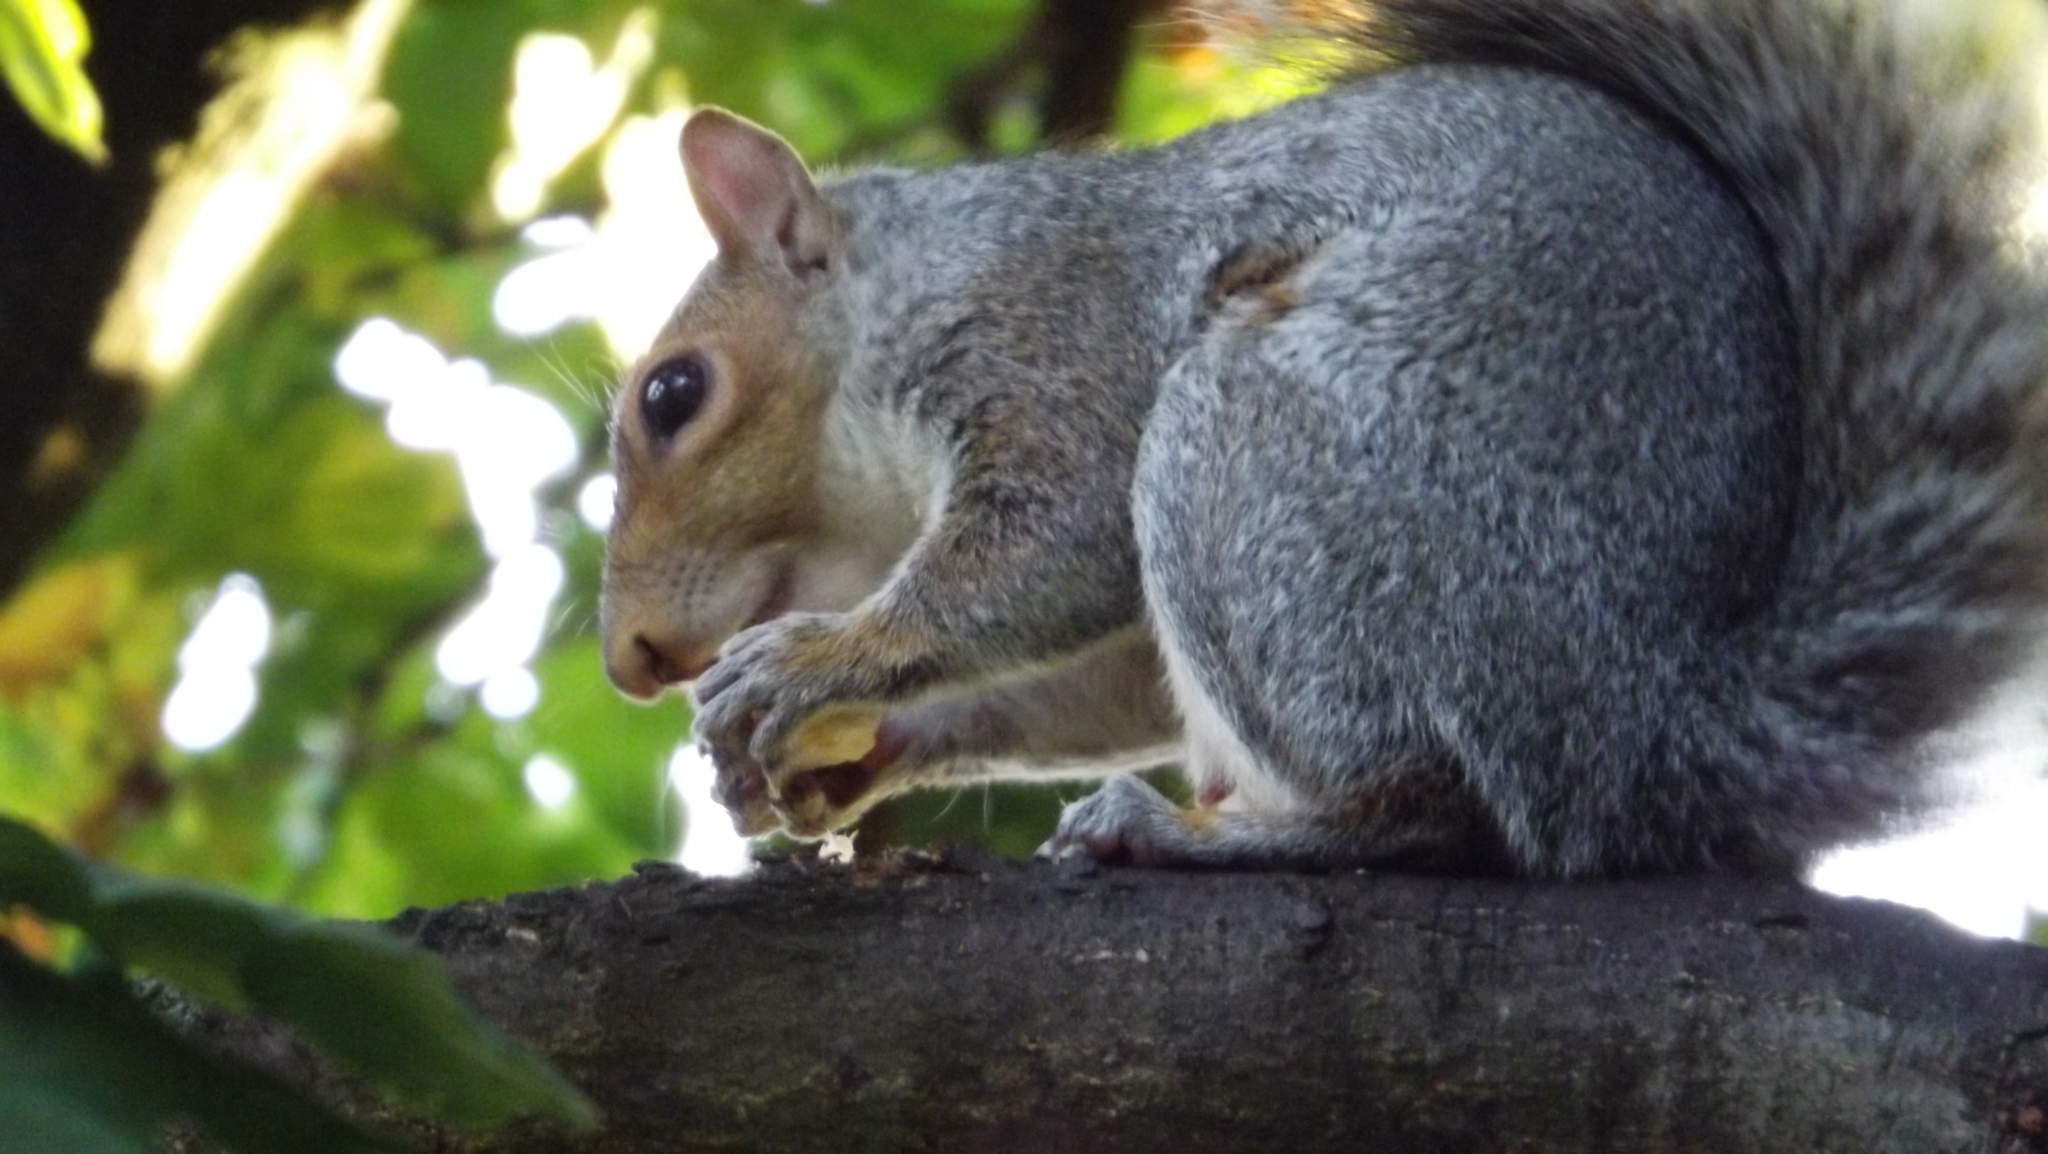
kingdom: Animalia
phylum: Chordata
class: Mammalia
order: Rodentia
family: Sciuridae
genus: Sciurus
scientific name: Sciurus carolinensis
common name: Eastern gray squirrel
